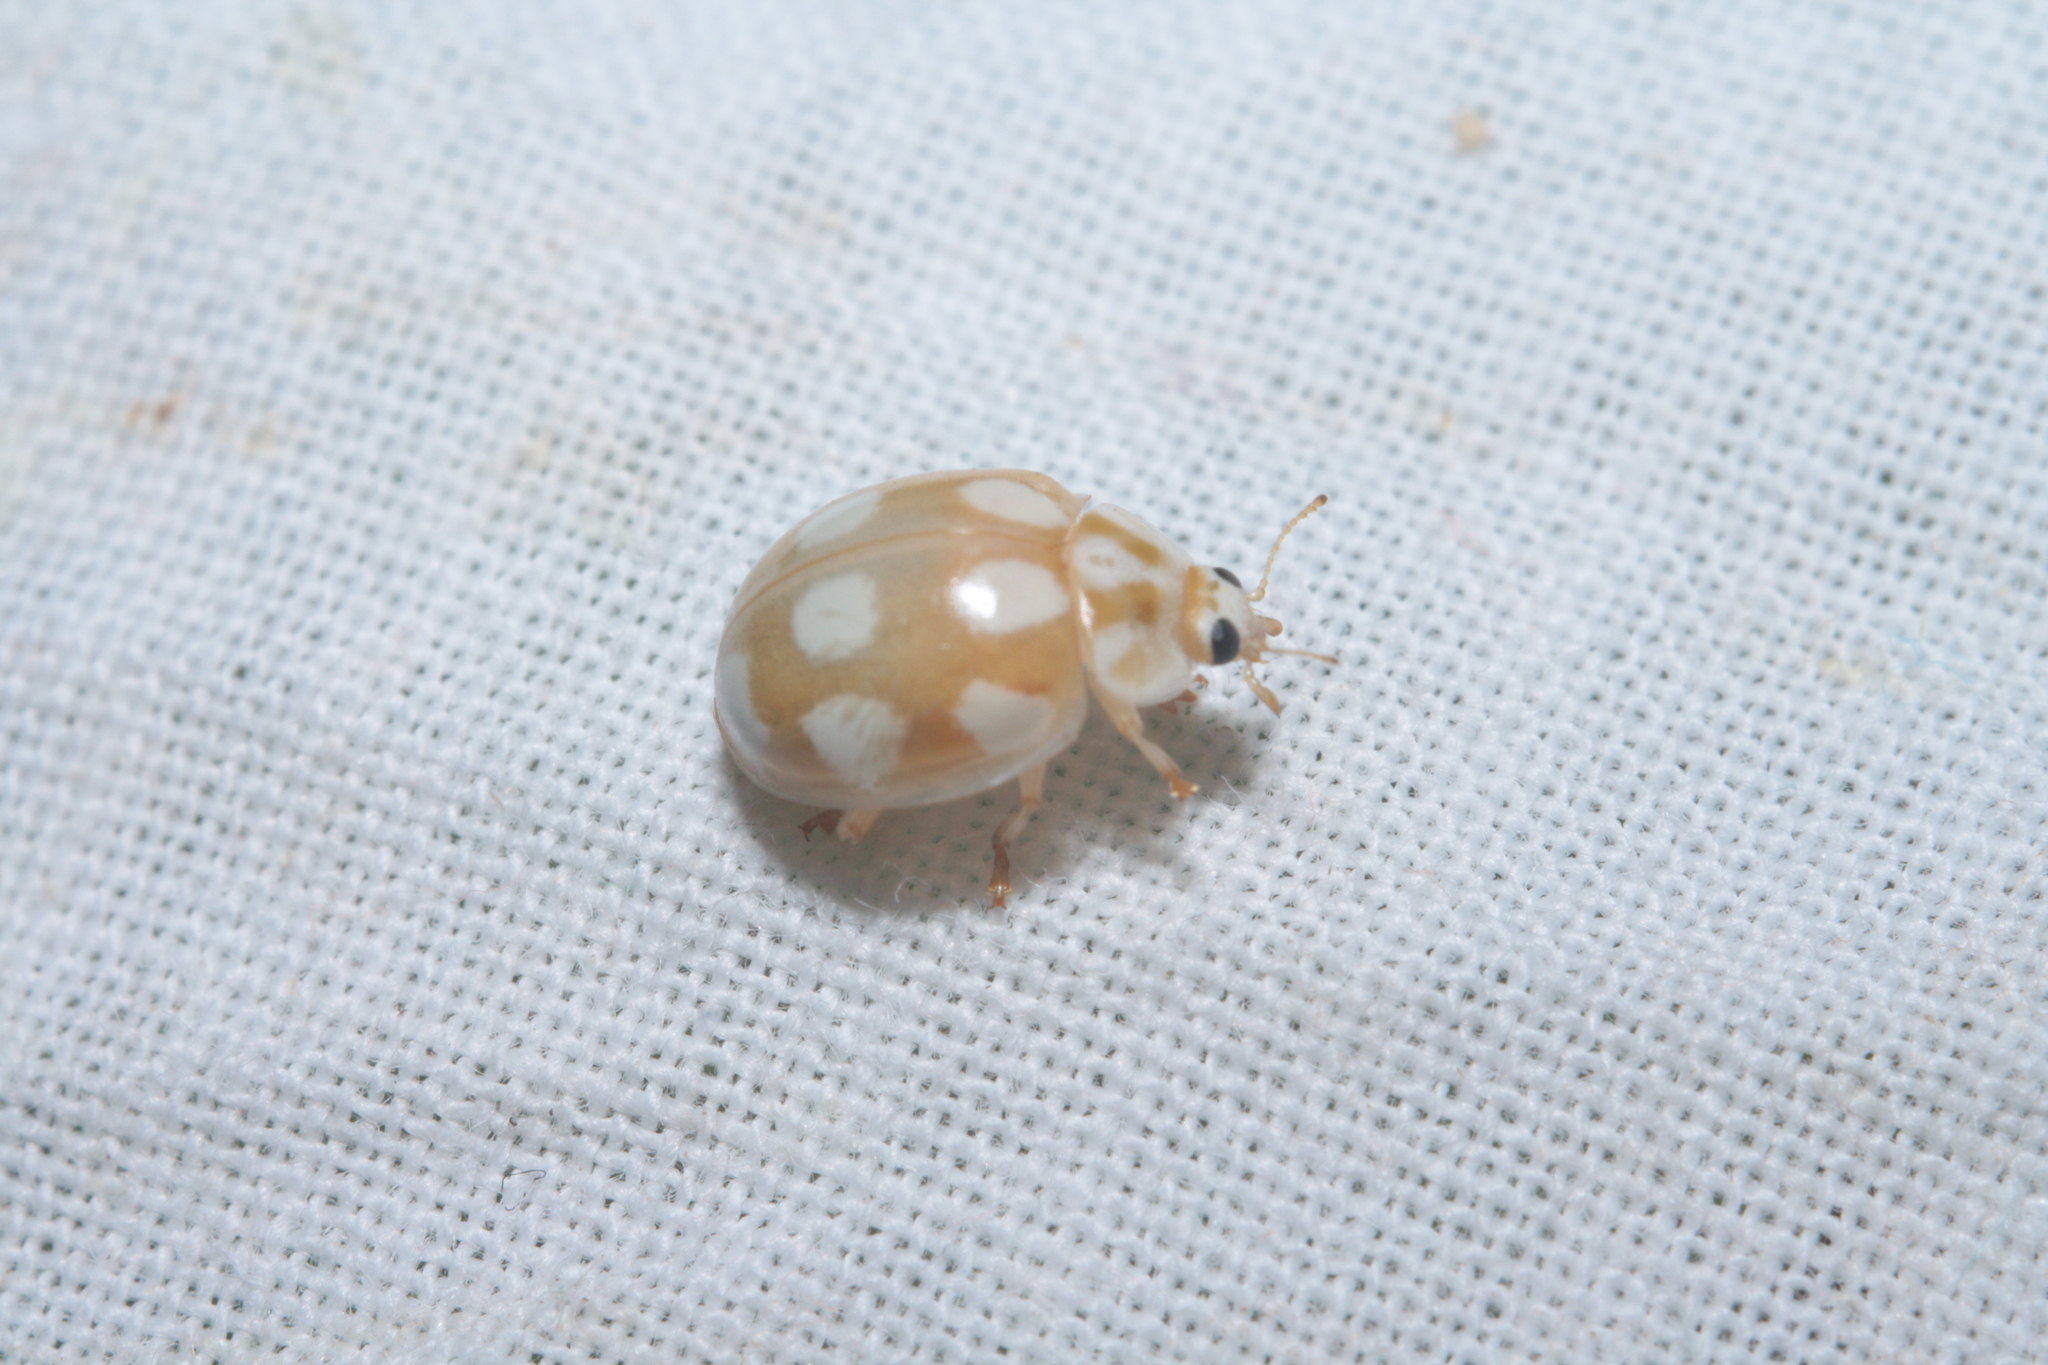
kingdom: Animalia
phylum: Arthropoda
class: Insecta
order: Coleoptera
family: Coccinellidae
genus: Calvia
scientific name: Calvia decemguttata
